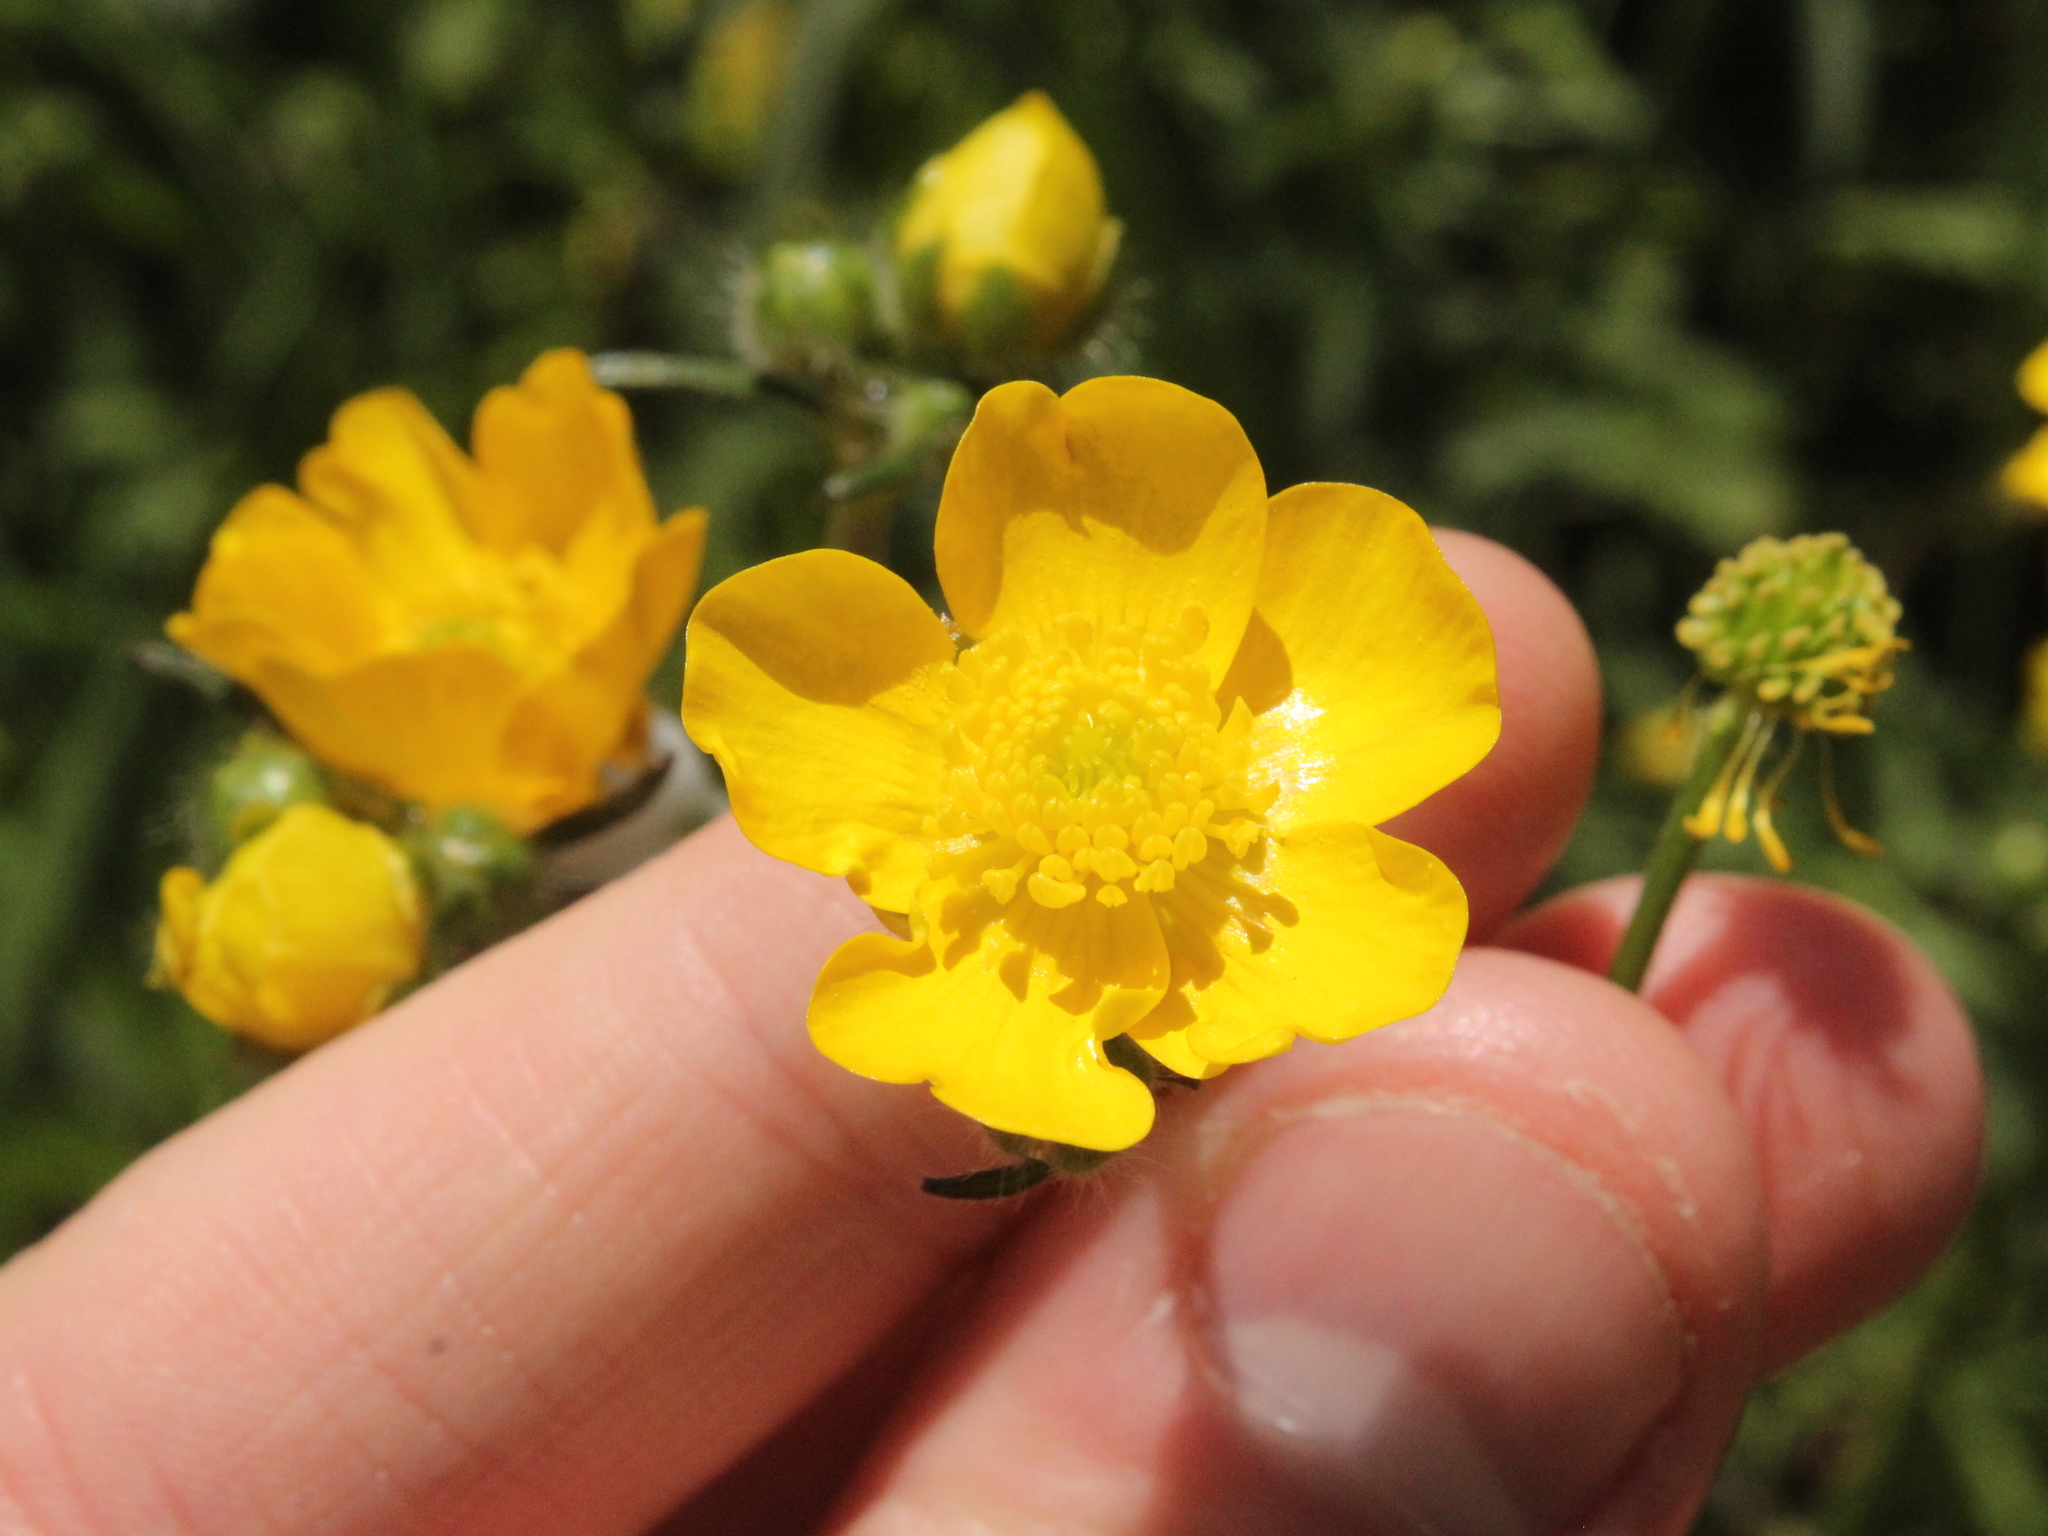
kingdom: Plantae
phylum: Tracheophyta
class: Magnoliopsida
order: Ranunculales
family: Ranunculaceae
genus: Ranunculus
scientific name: Ranunculus acris
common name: Meadow buttercup
